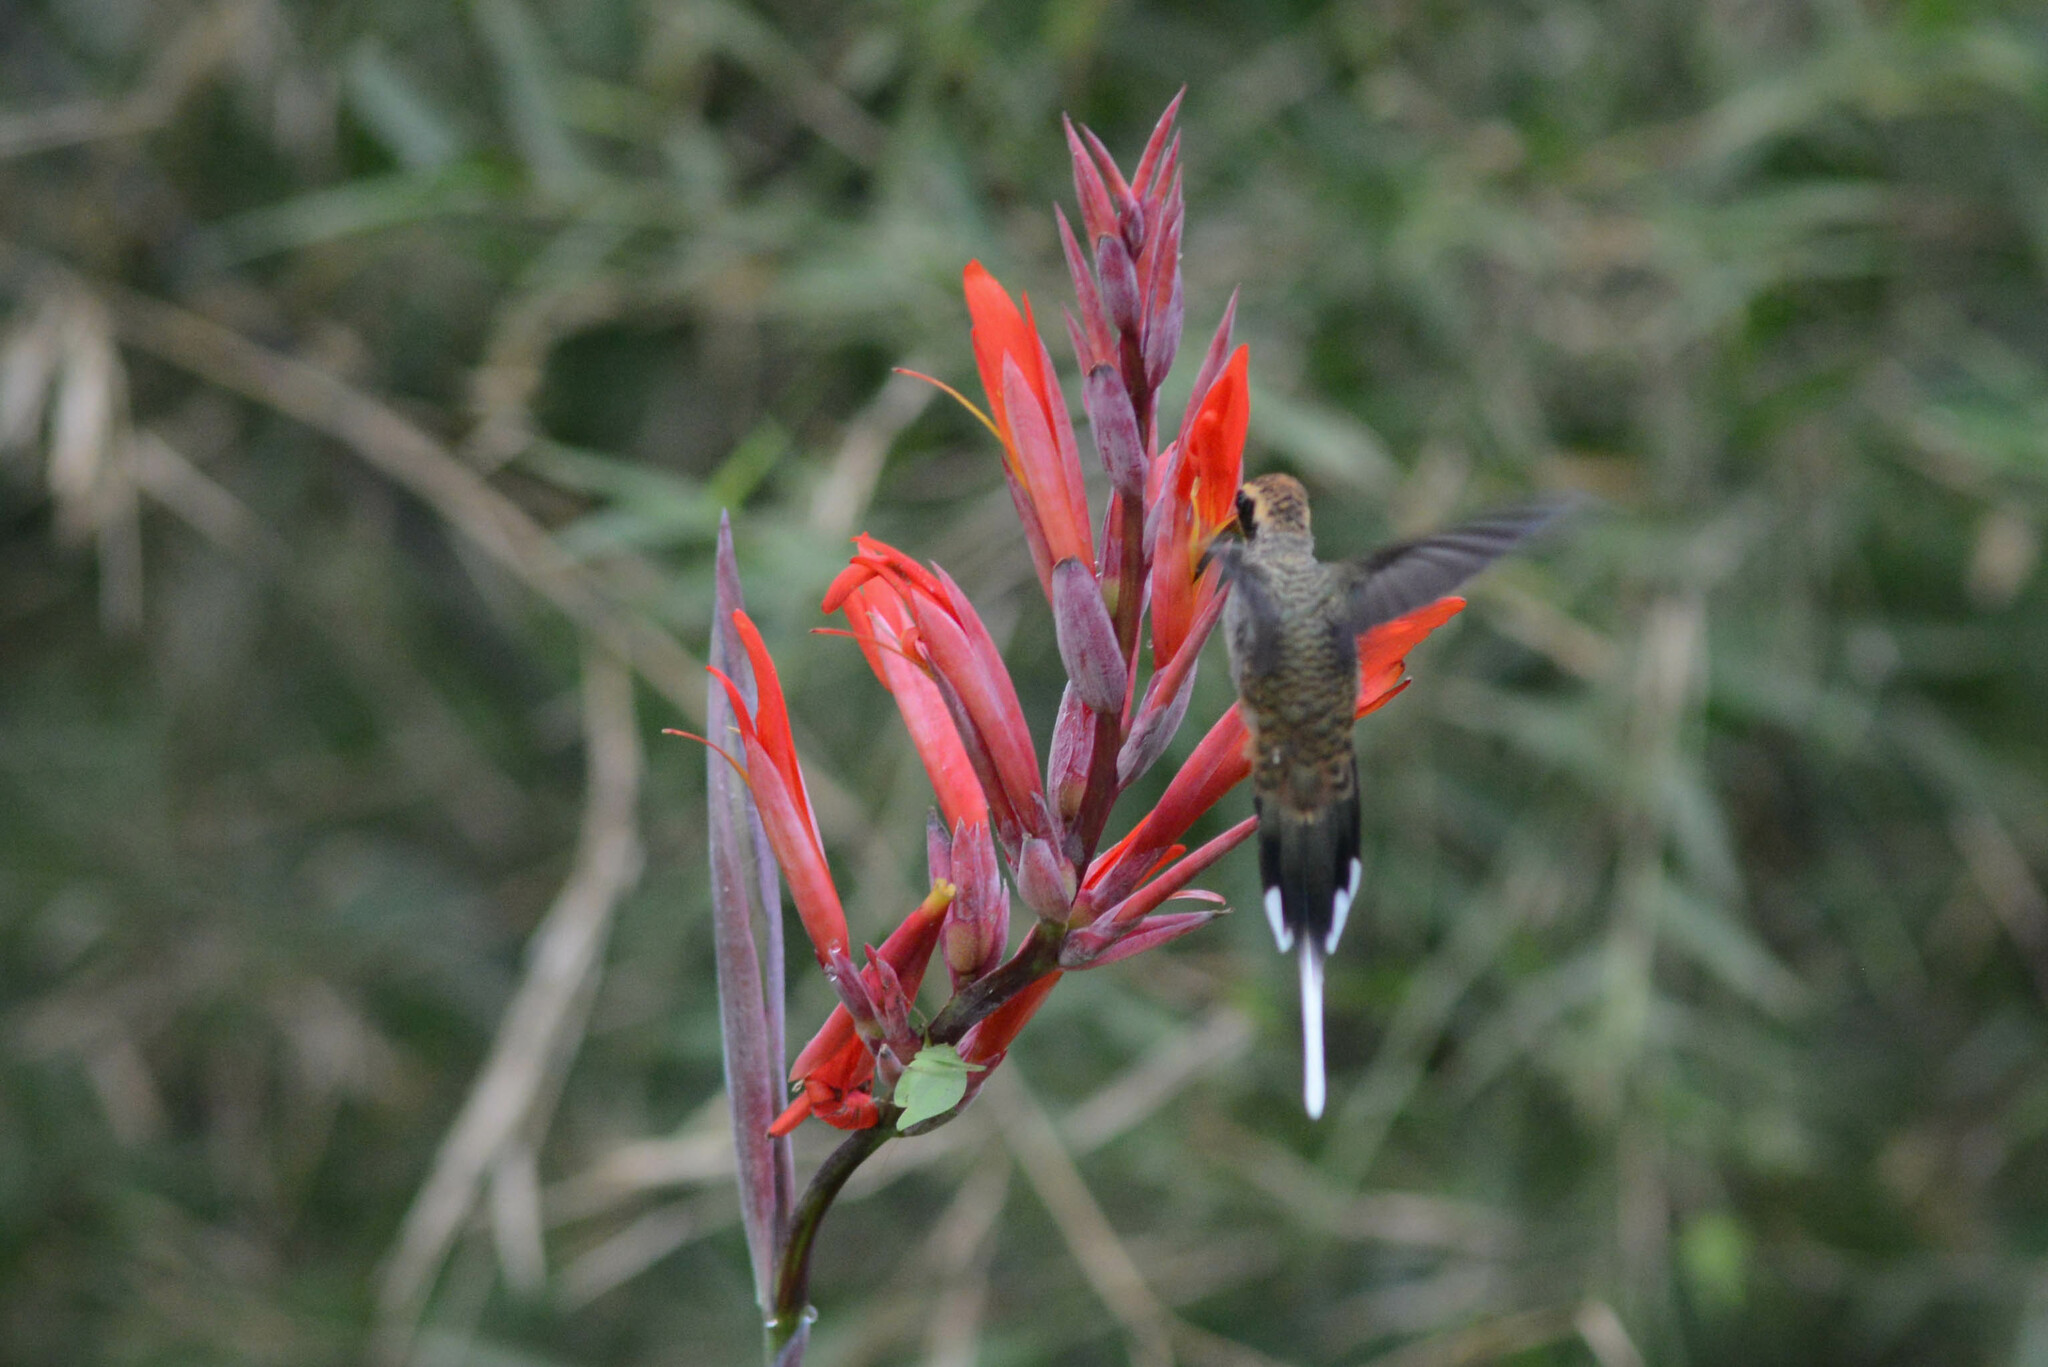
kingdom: Animalia
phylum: Chordata
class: Aves
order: Apodiformes
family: Trochilidae
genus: Phaethornis
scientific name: Phaethornis eurynome
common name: Scale-throated hermit
